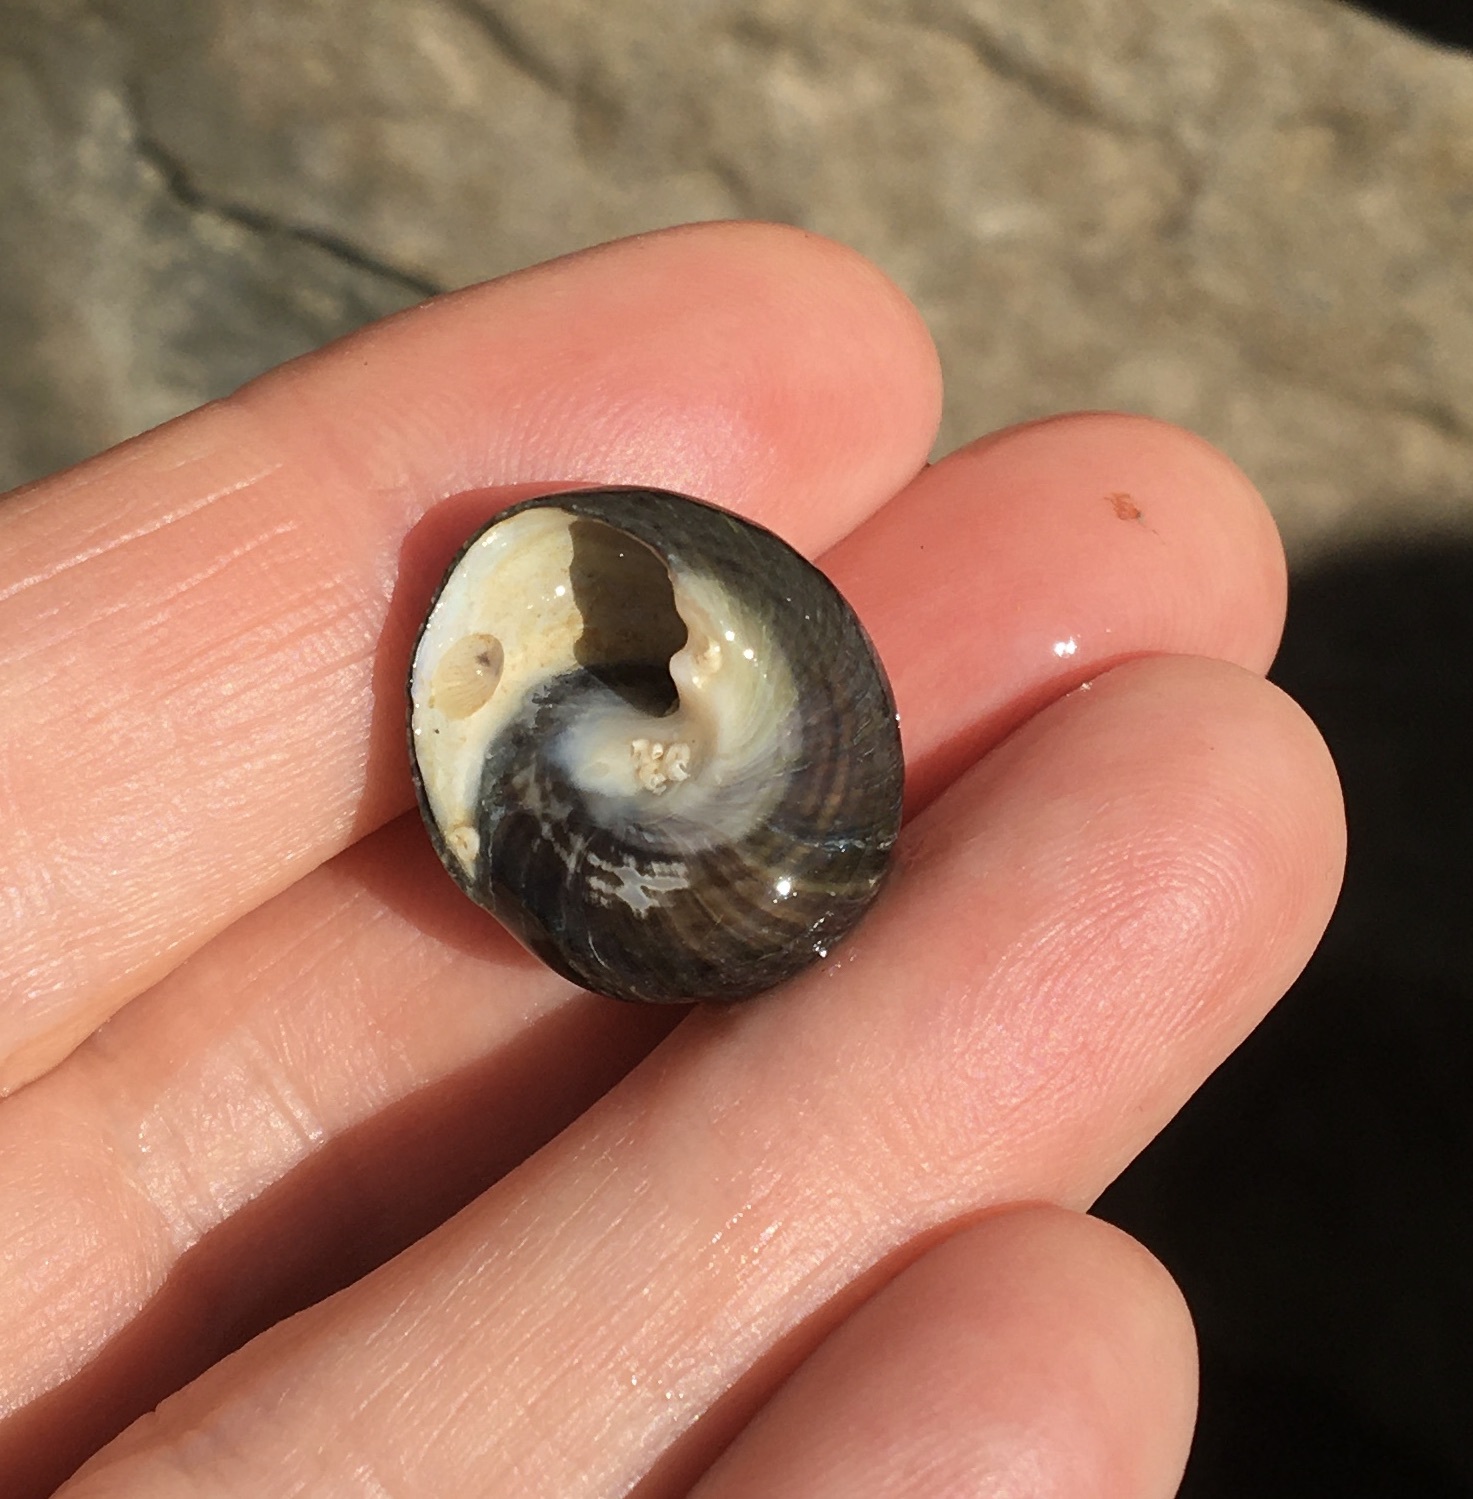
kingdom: Animalia
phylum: Mollusca
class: Gastropoda
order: Trochida
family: Tegulidae
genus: Tegula
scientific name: Tegula funebralis
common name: Black tegula
